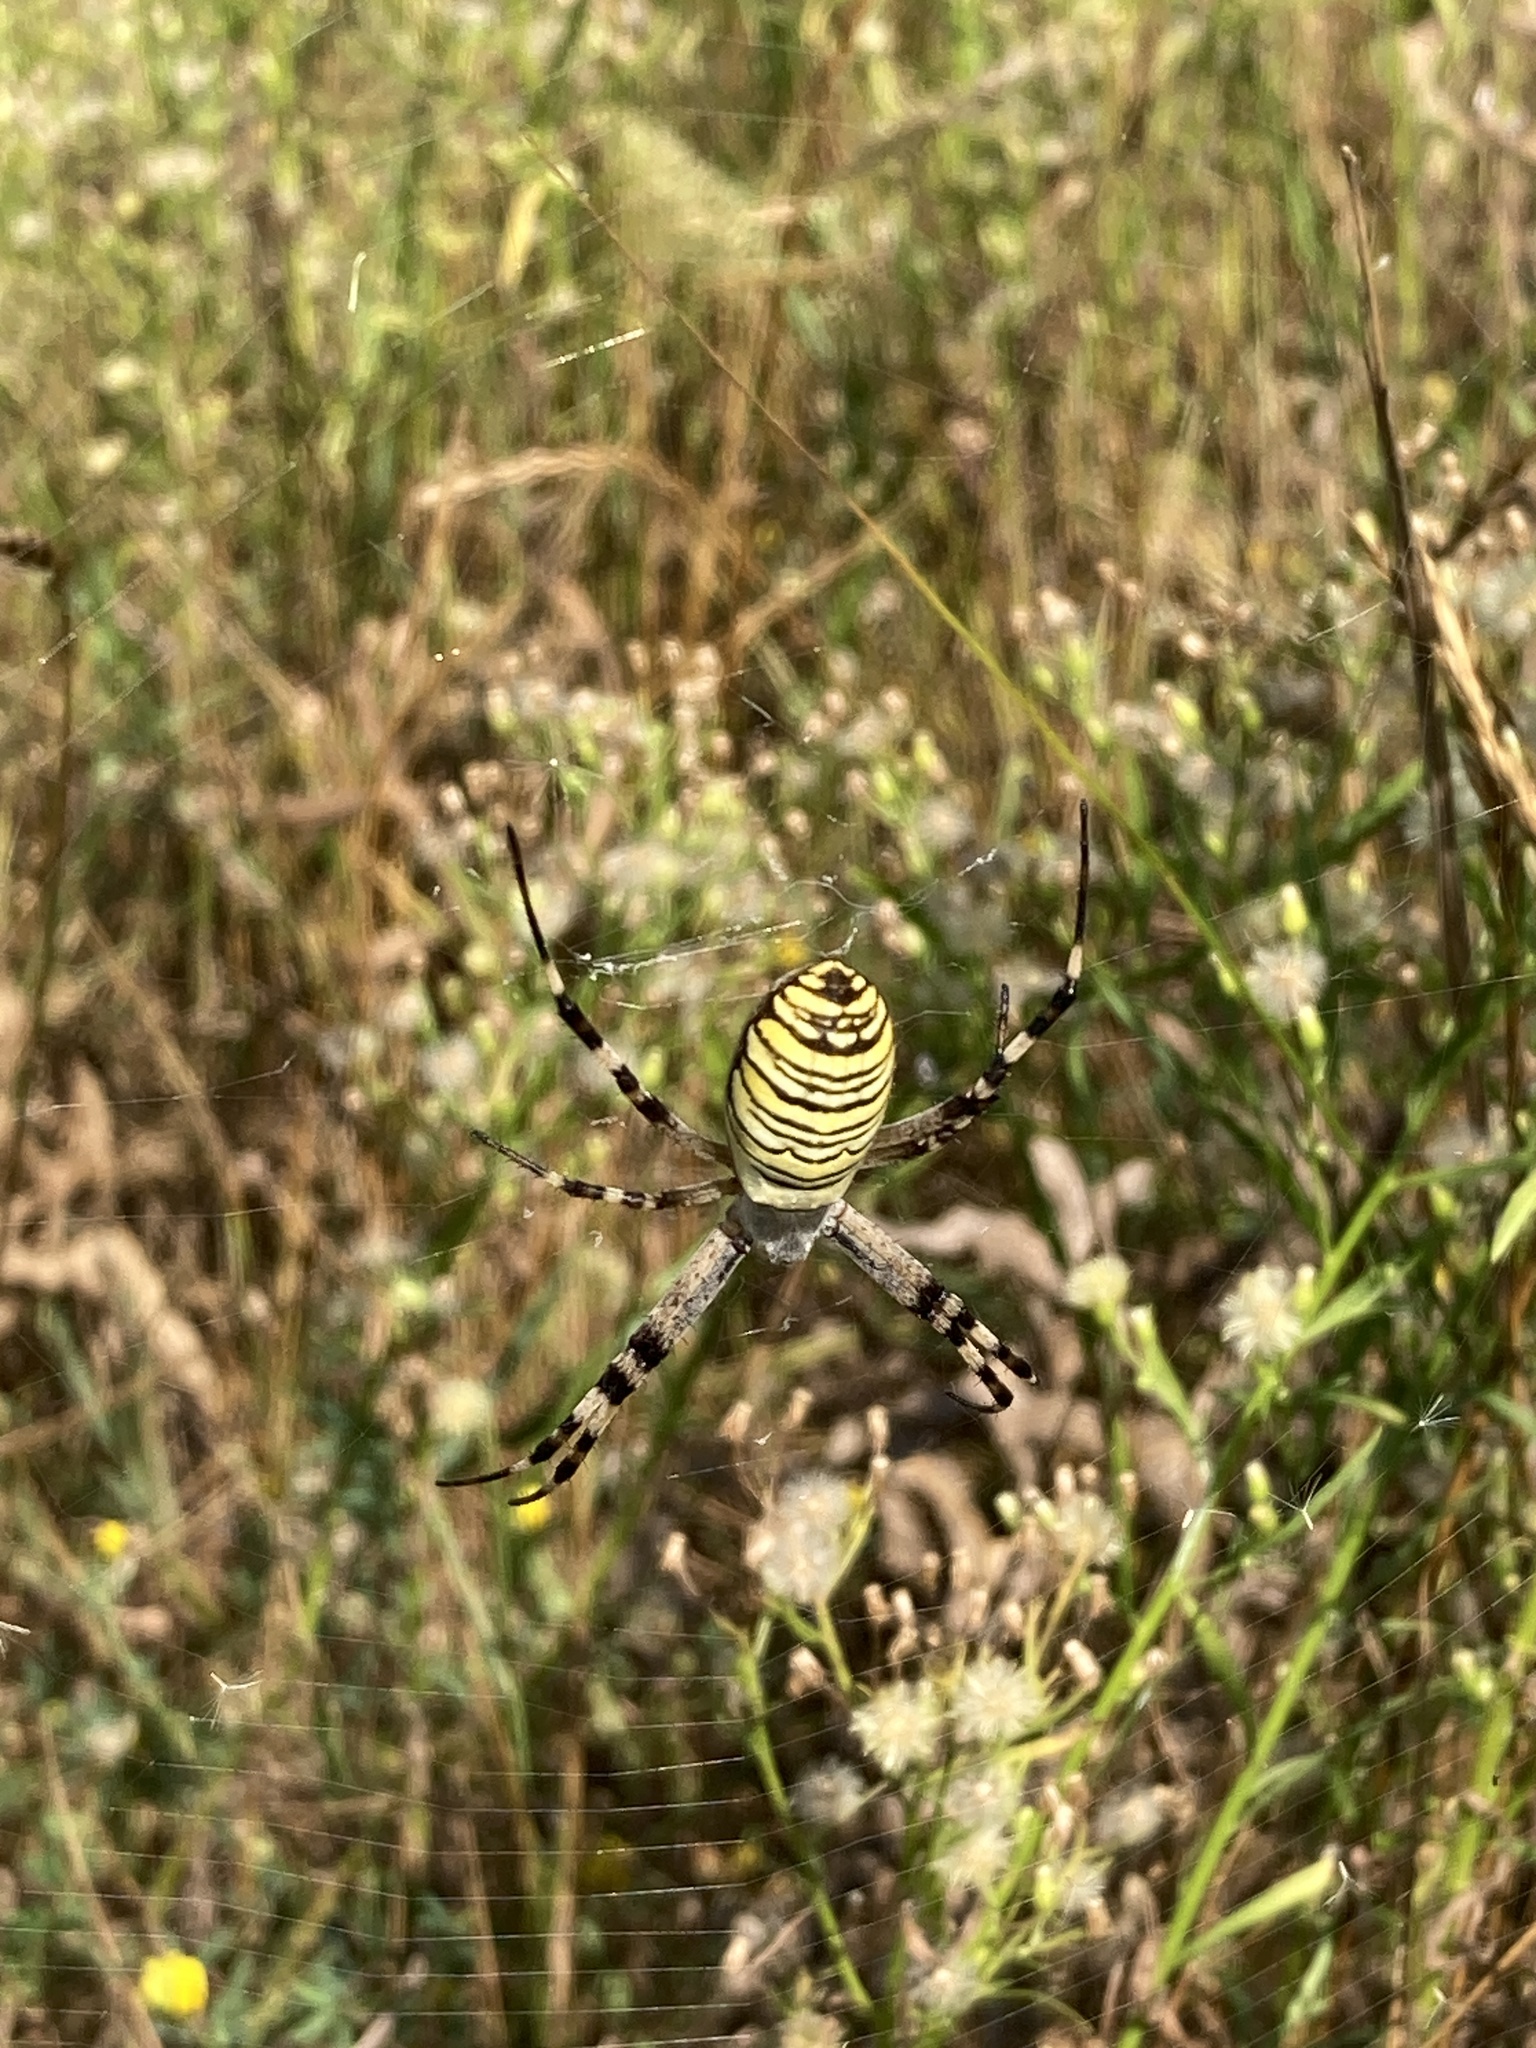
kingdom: Animalia
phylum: Arthropoda
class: Arachnida
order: Araneae
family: Araneidae
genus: Argiope
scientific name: Argiope bruennichi
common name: Wasp spider
